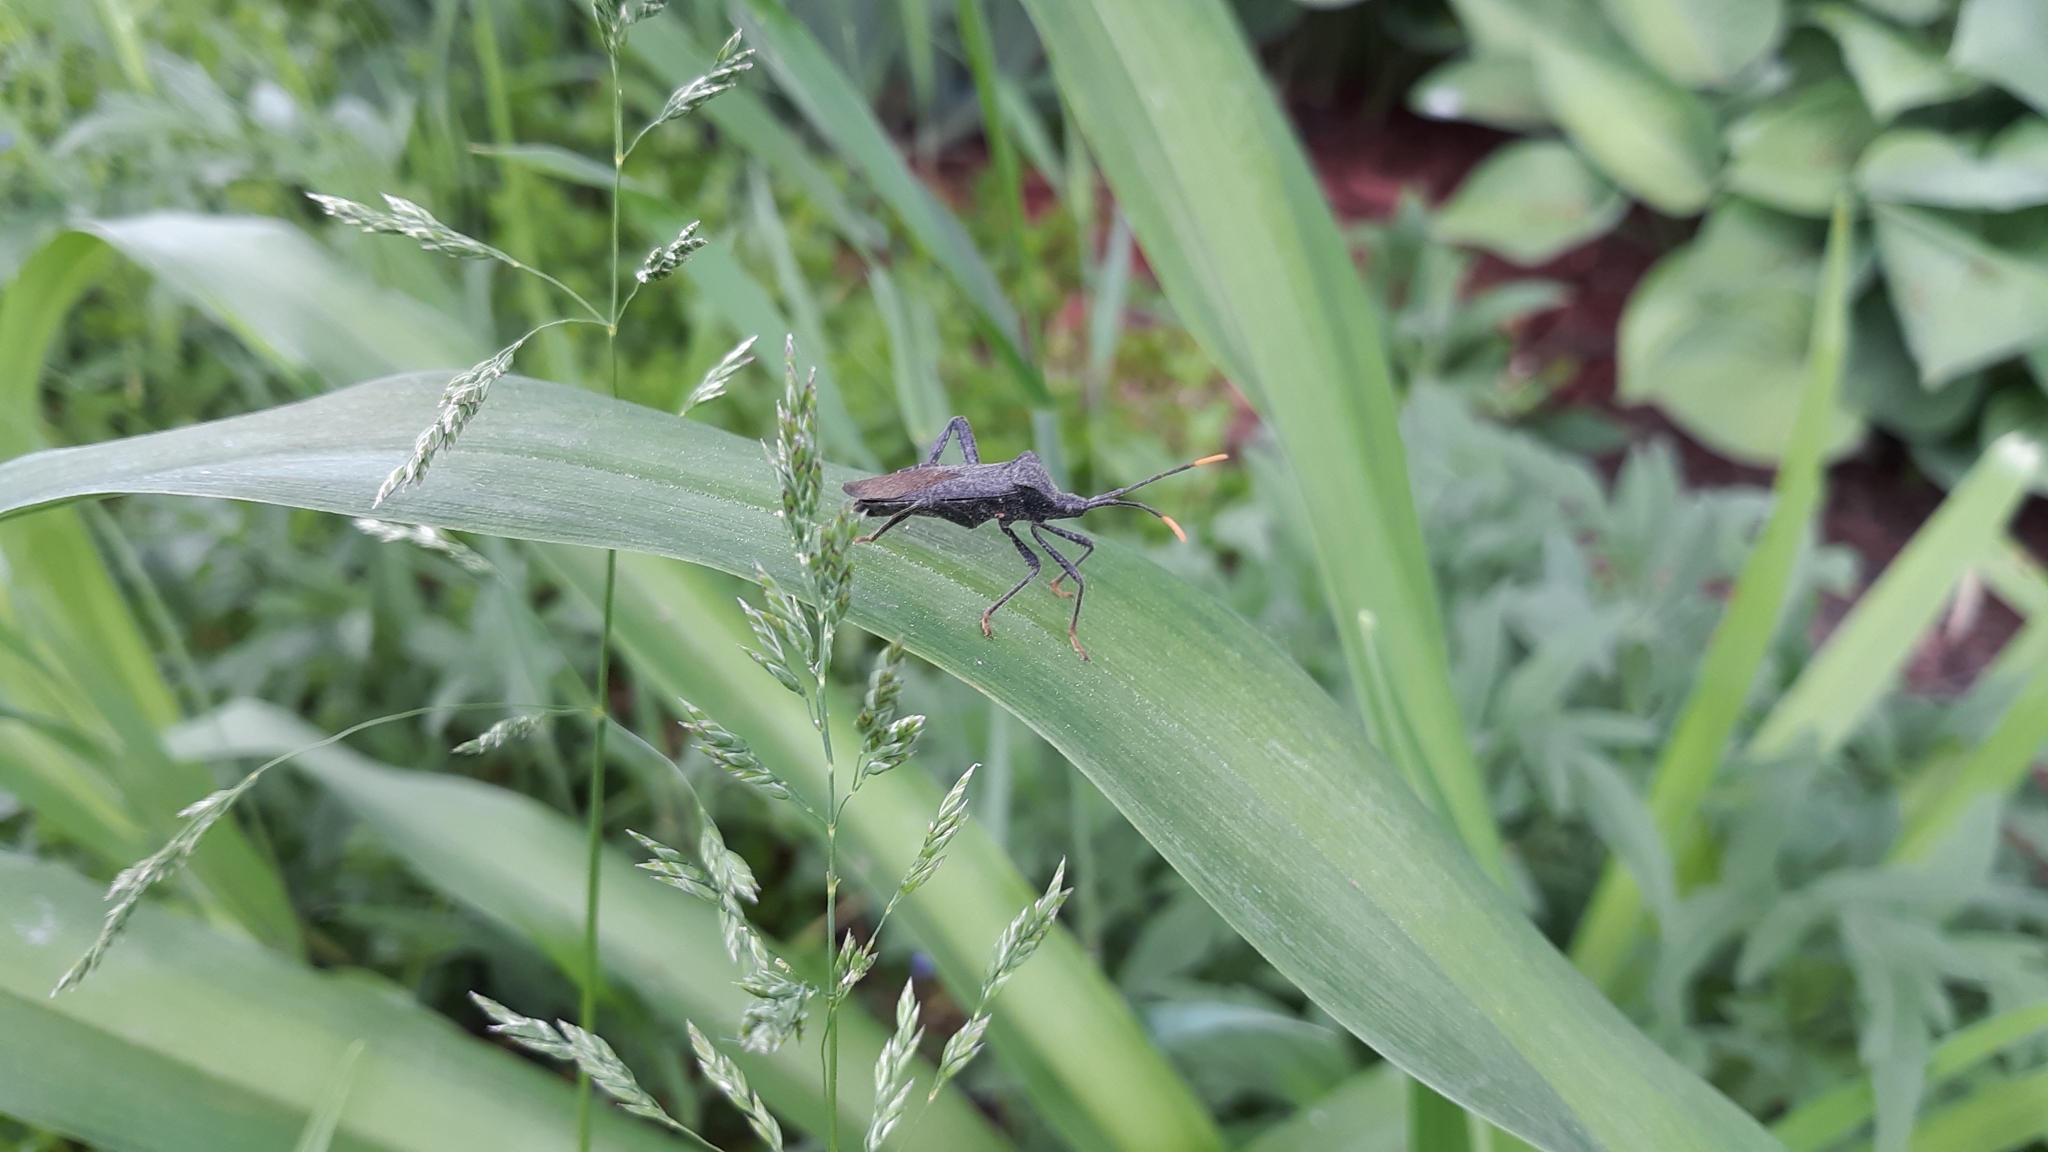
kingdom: Animalia
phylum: Arthropoda
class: Insecta
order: Hemiptera
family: Coreidae
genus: Acanthocephala
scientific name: Acanthocephala terminalis
